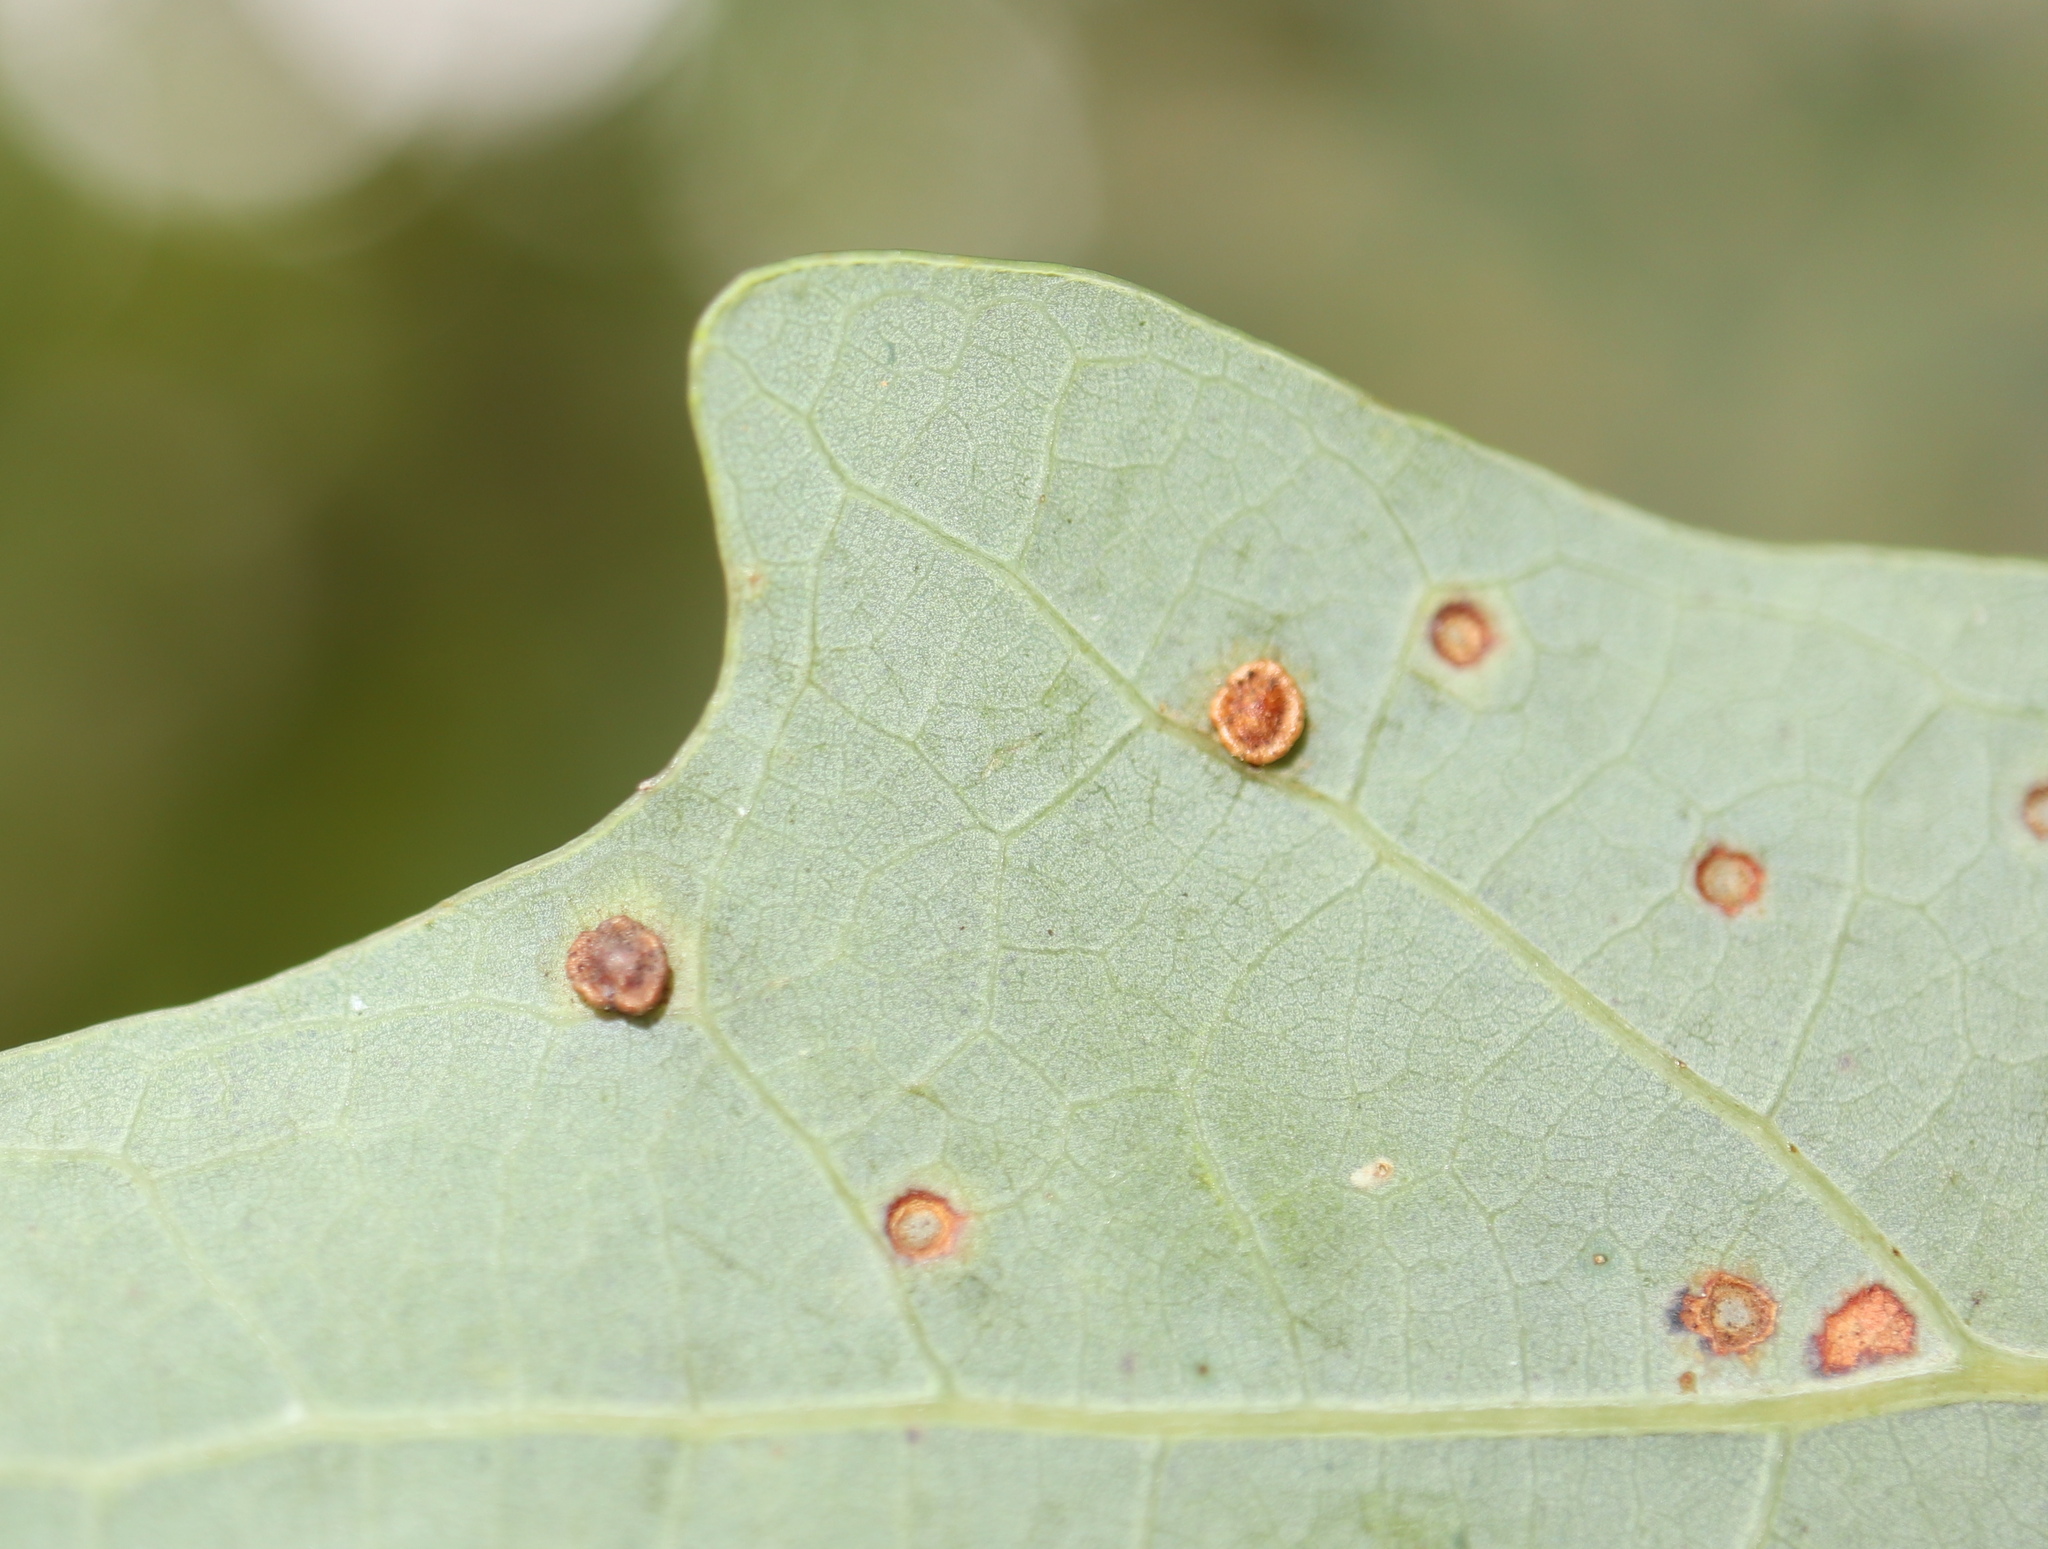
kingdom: Animalia
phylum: Arthropoda
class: Insecta
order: Hymenoptera
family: Cynipidae
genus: Neuroterus
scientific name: Neuroterus
